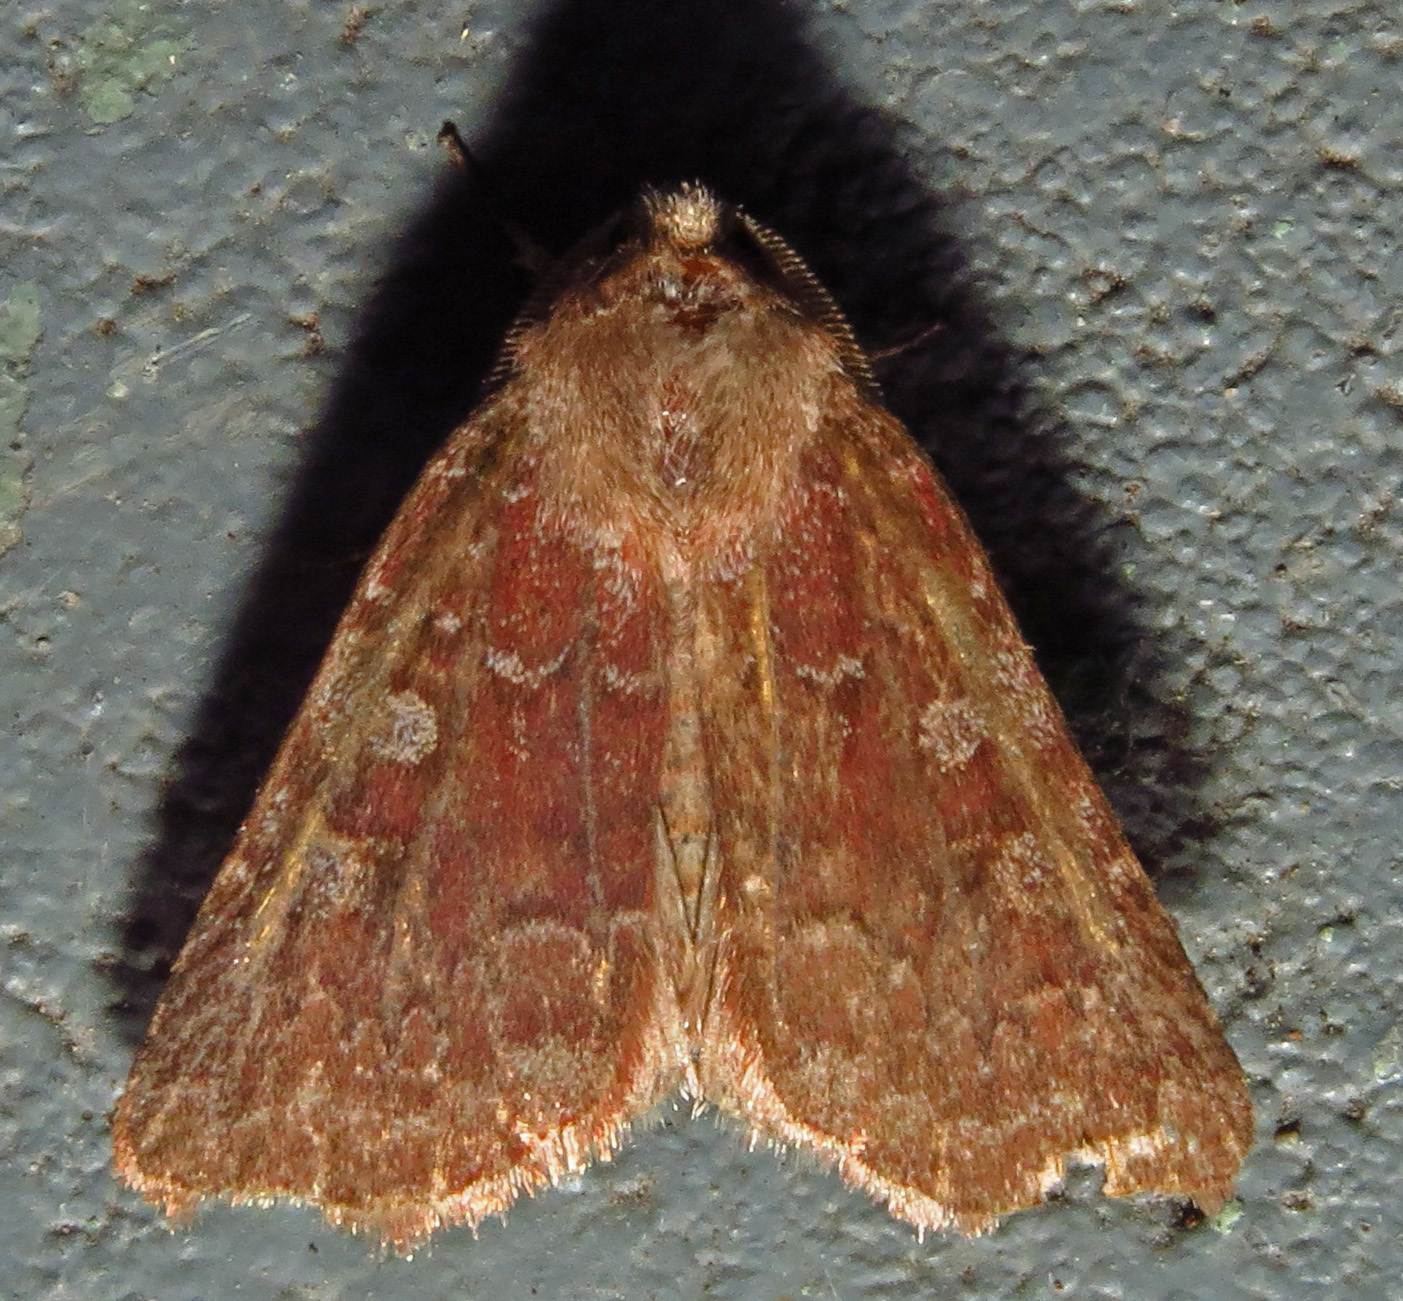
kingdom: Animalia
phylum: Arthropoda
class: Insecta
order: Lepidoptera
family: Noctuidae
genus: Cerastis
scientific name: Cerastis tenebrifera
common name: Reddish speckled dart
